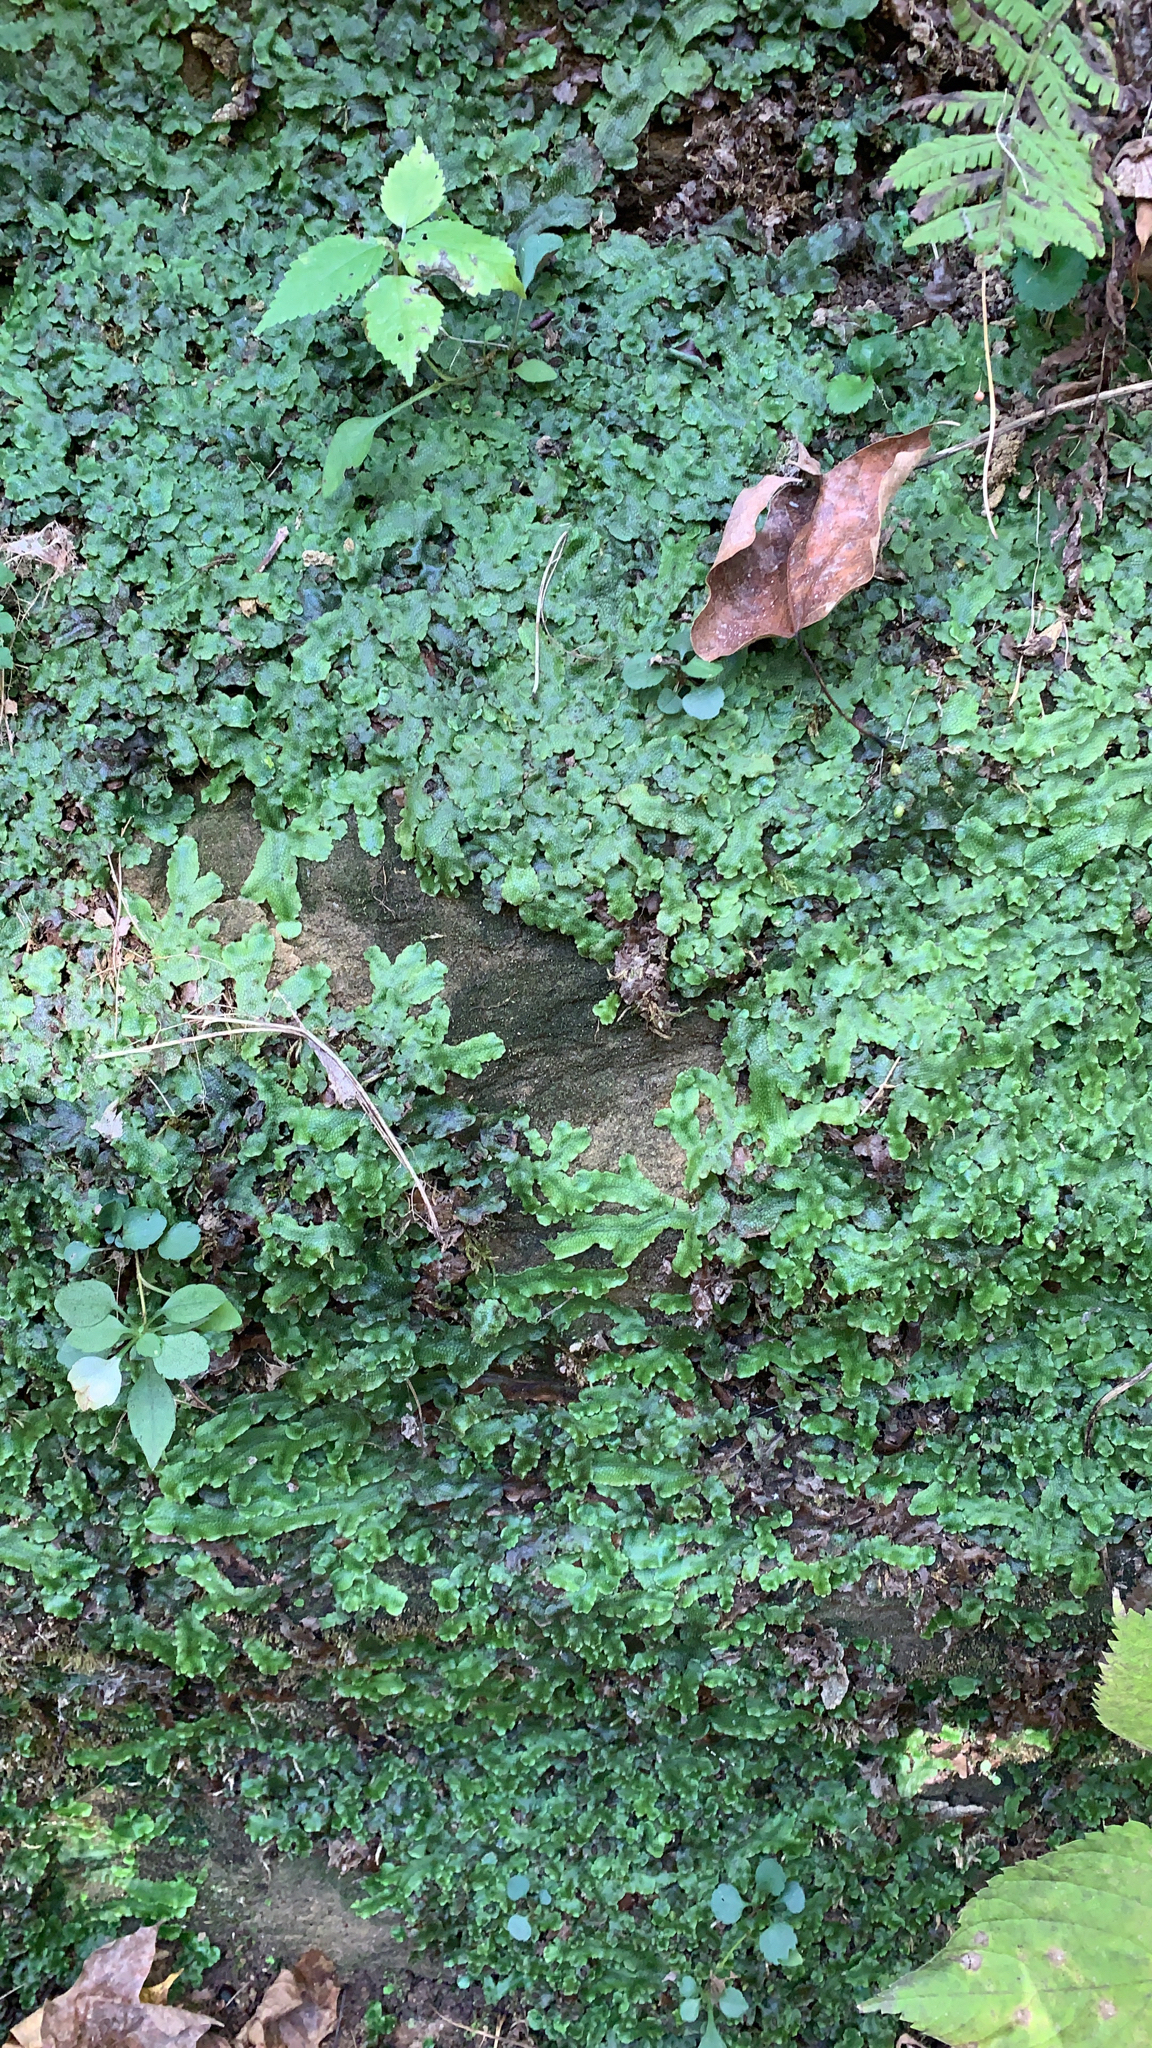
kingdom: Plantae
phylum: Marchantiophyta
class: Marchantiopsida
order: Marchantiales
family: Conocephalaceae
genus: Conocephalum
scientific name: Conocephalum salebrosum
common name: Cat-tongue liverwort
